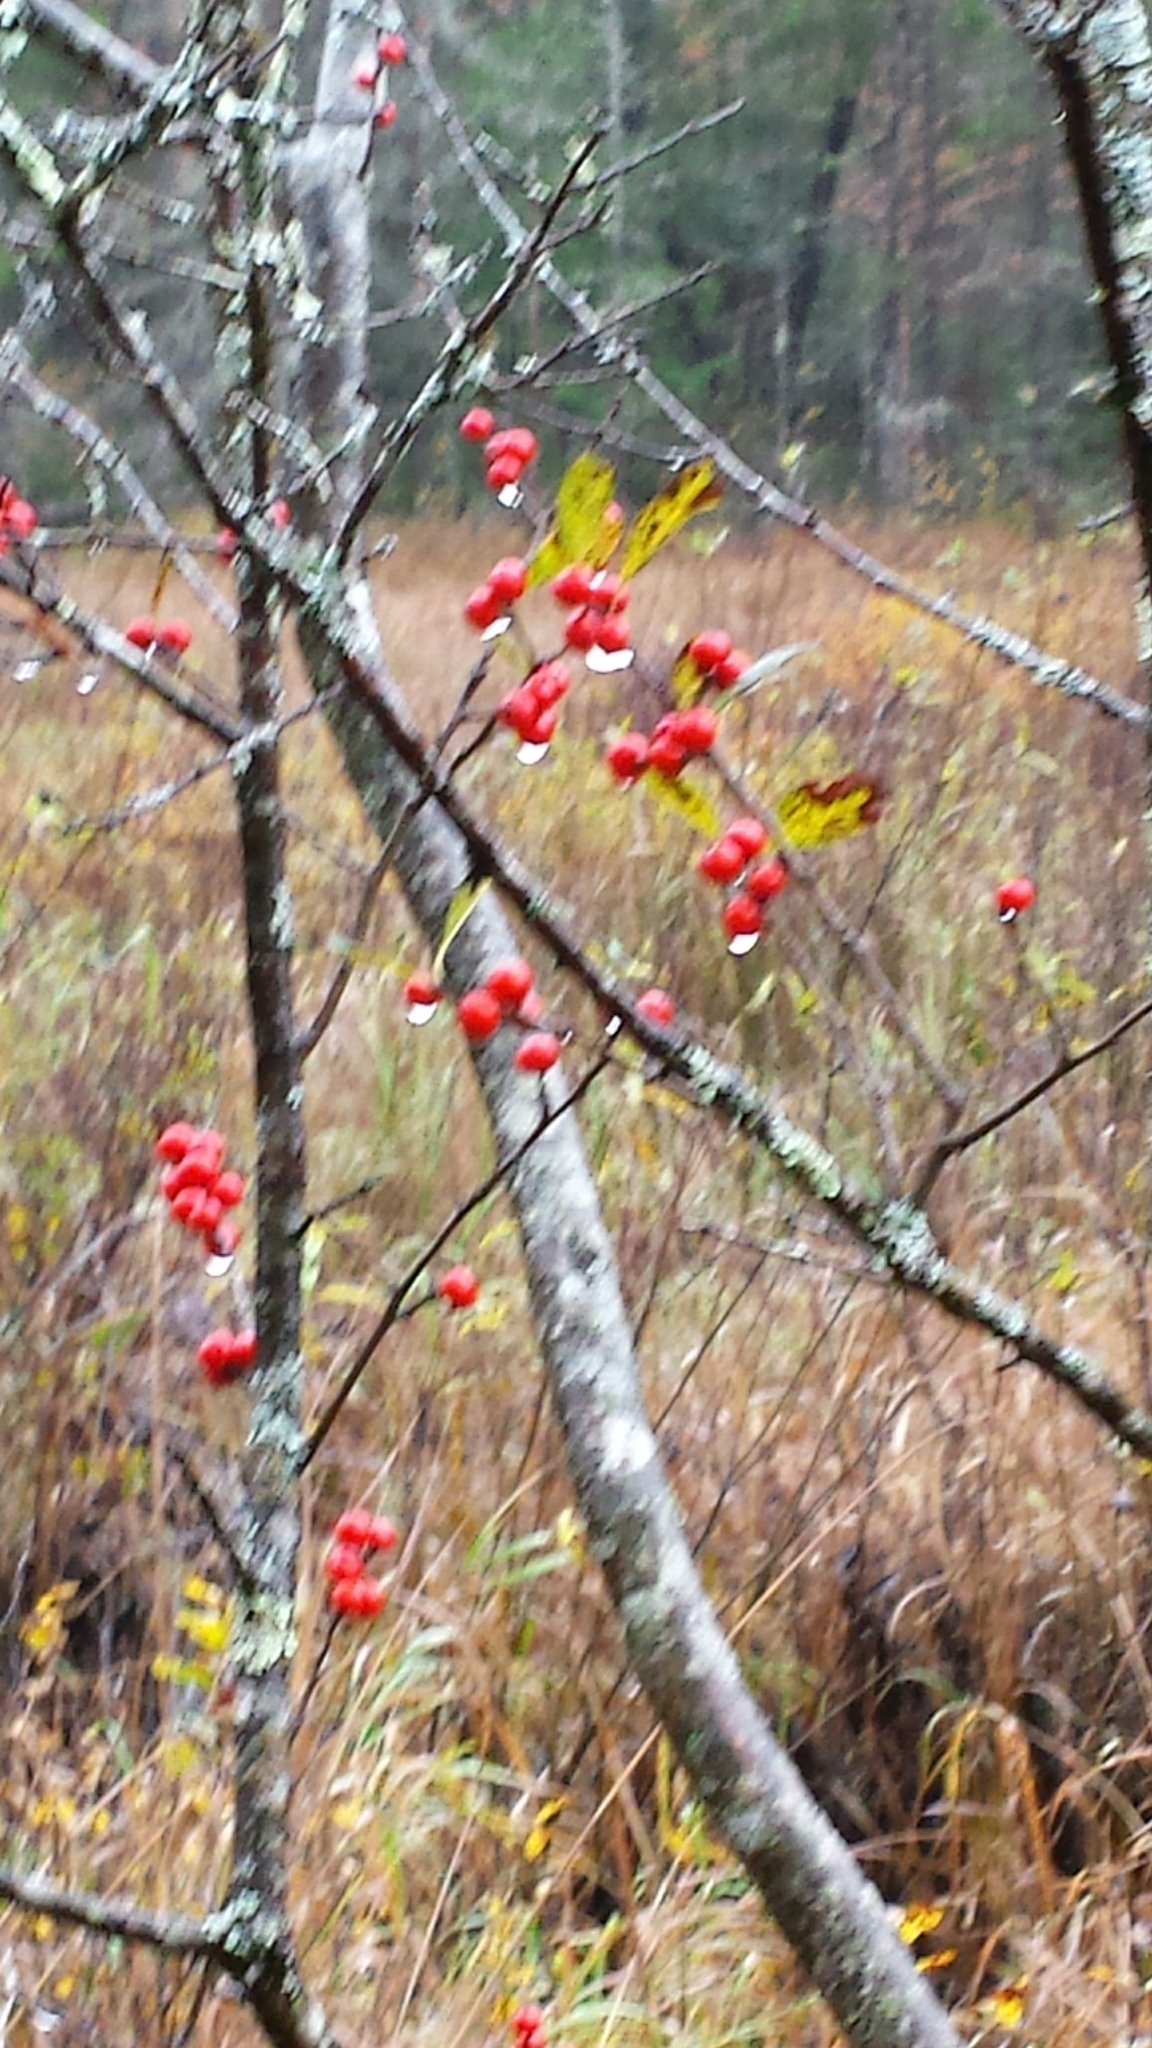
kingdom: Plantae
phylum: Tracheophyta
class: Magnoliopsida
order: Aquifoliales
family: Aquifoliaceae
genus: Ilex
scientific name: Ilex verticillata
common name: Virginia winterberry
